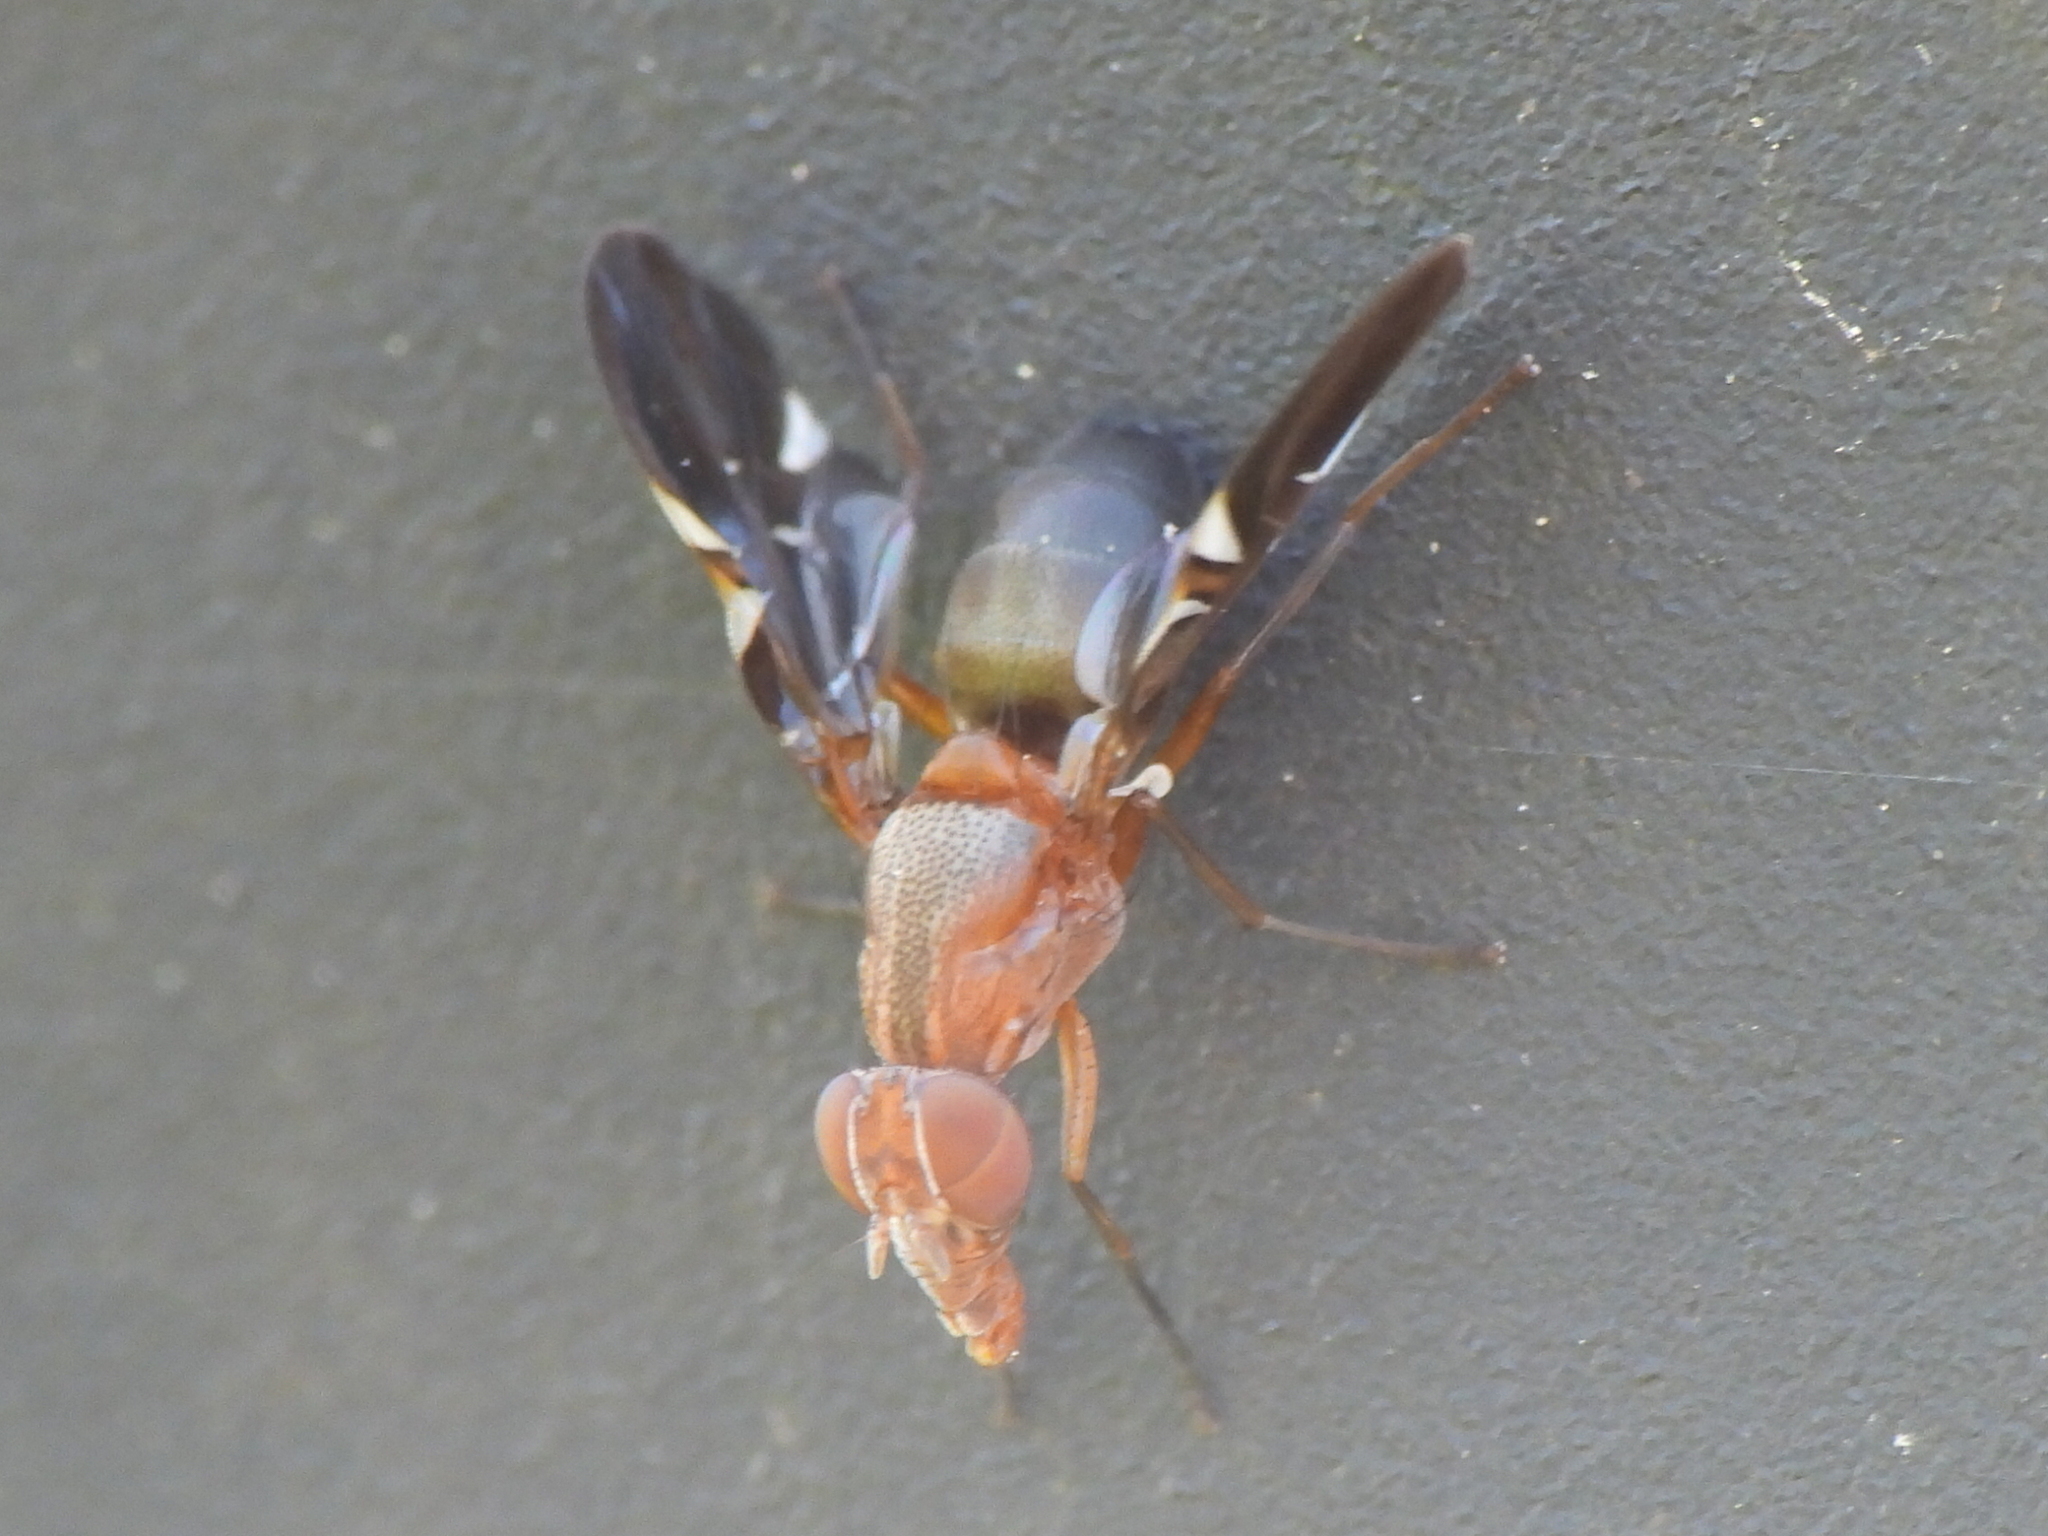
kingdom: Animalia
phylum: Arthropoda
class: Insecta
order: Diptera
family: Ulidiidae
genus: Delphinia
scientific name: Delphinia picta
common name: Common picture-winged fly
